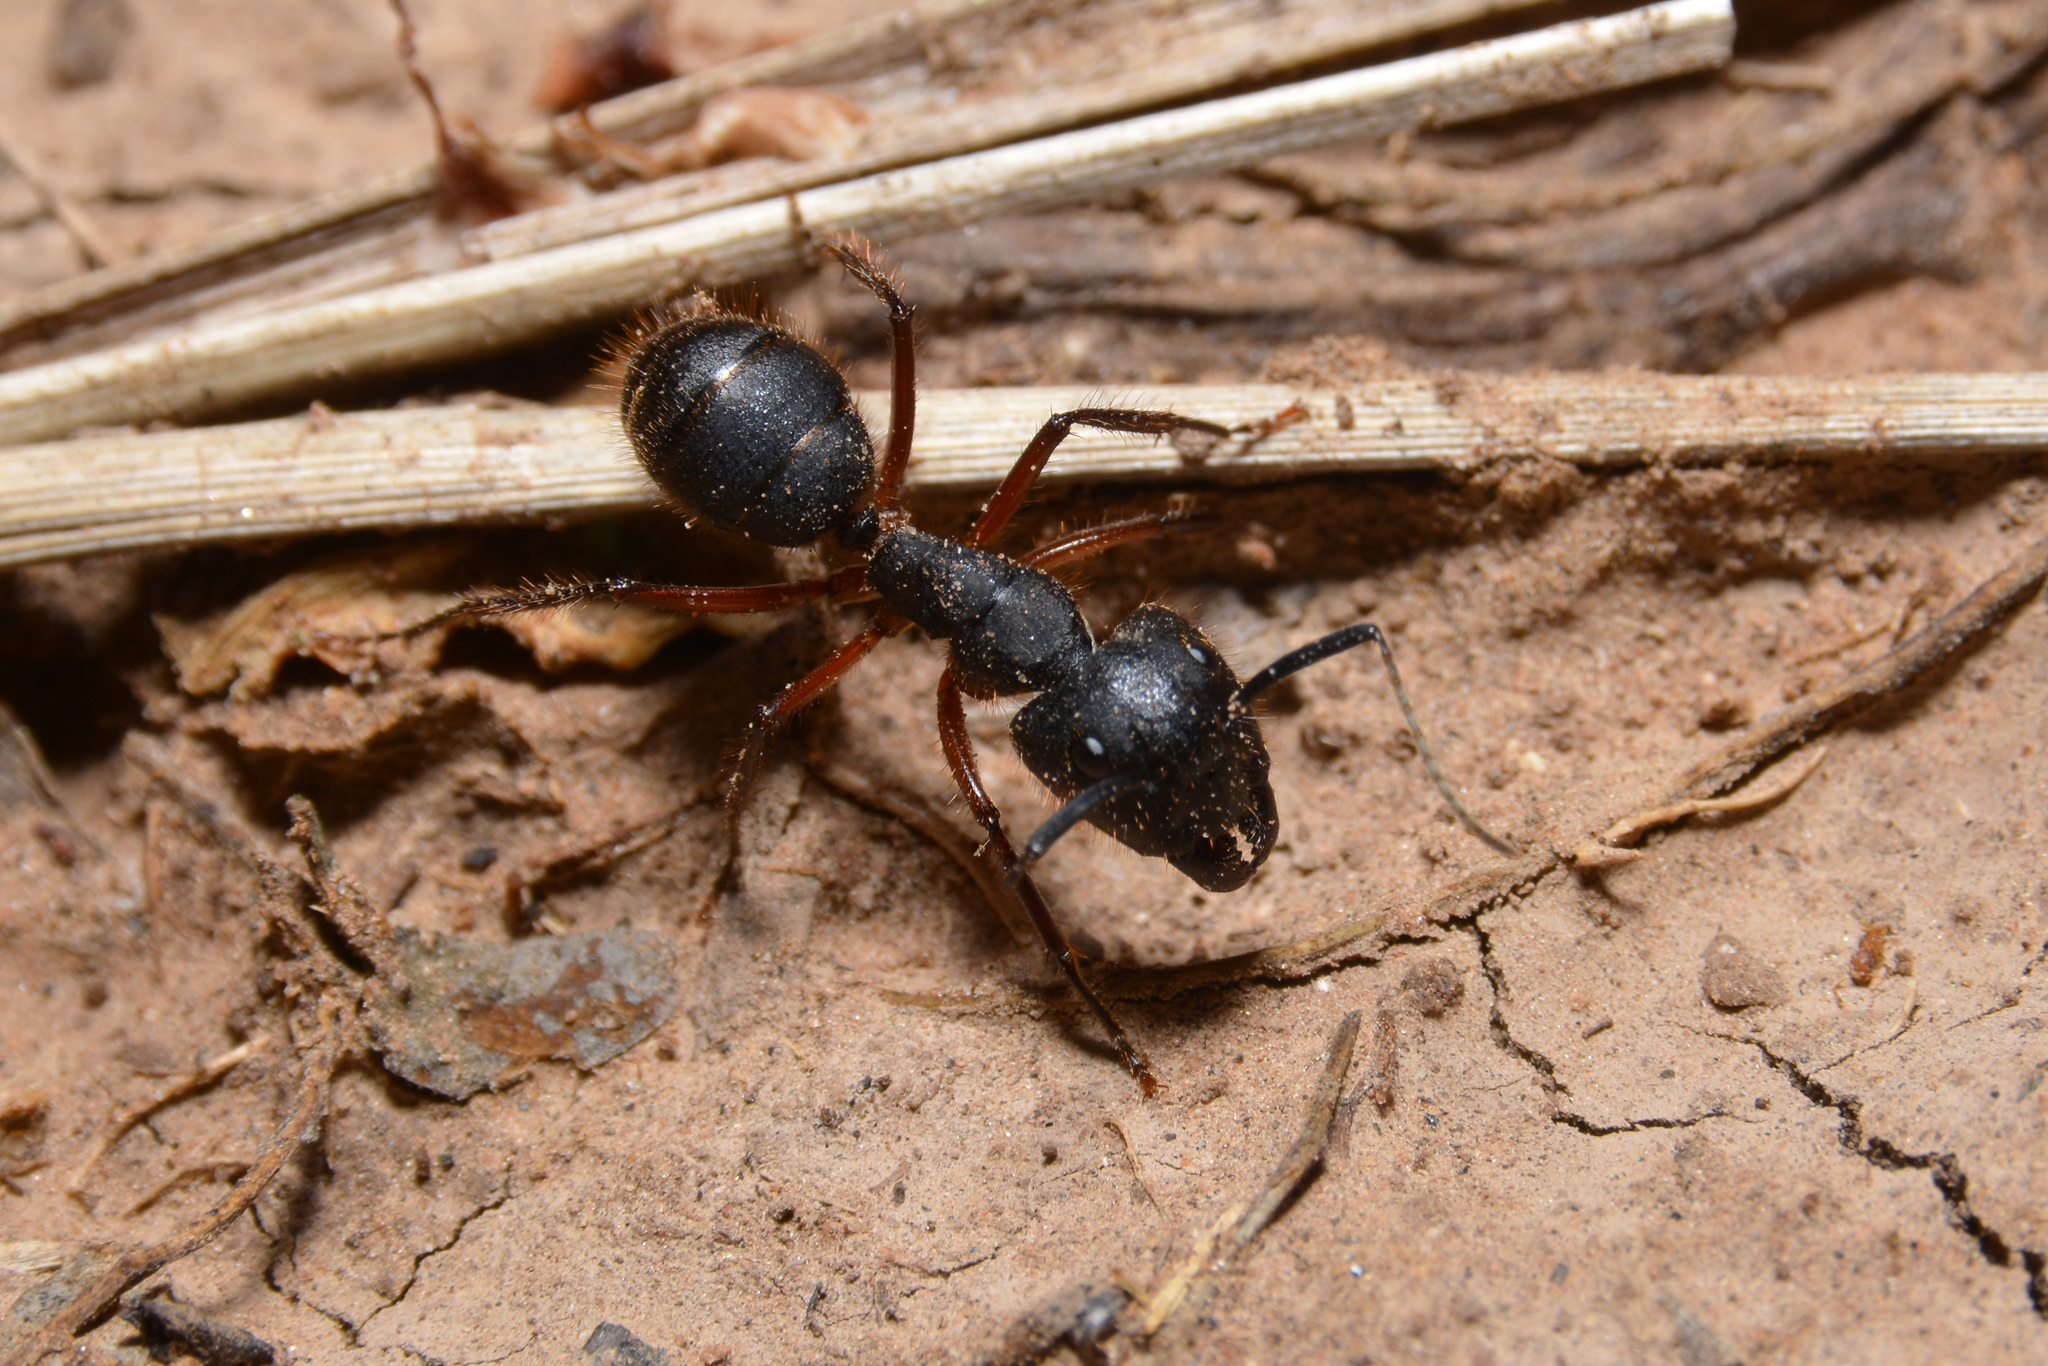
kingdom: Animalia
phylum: Arthropoda
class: Insecta
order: Hymenoptera
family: Formicidae
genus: Camponotus
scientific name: Camponotus rufipes
